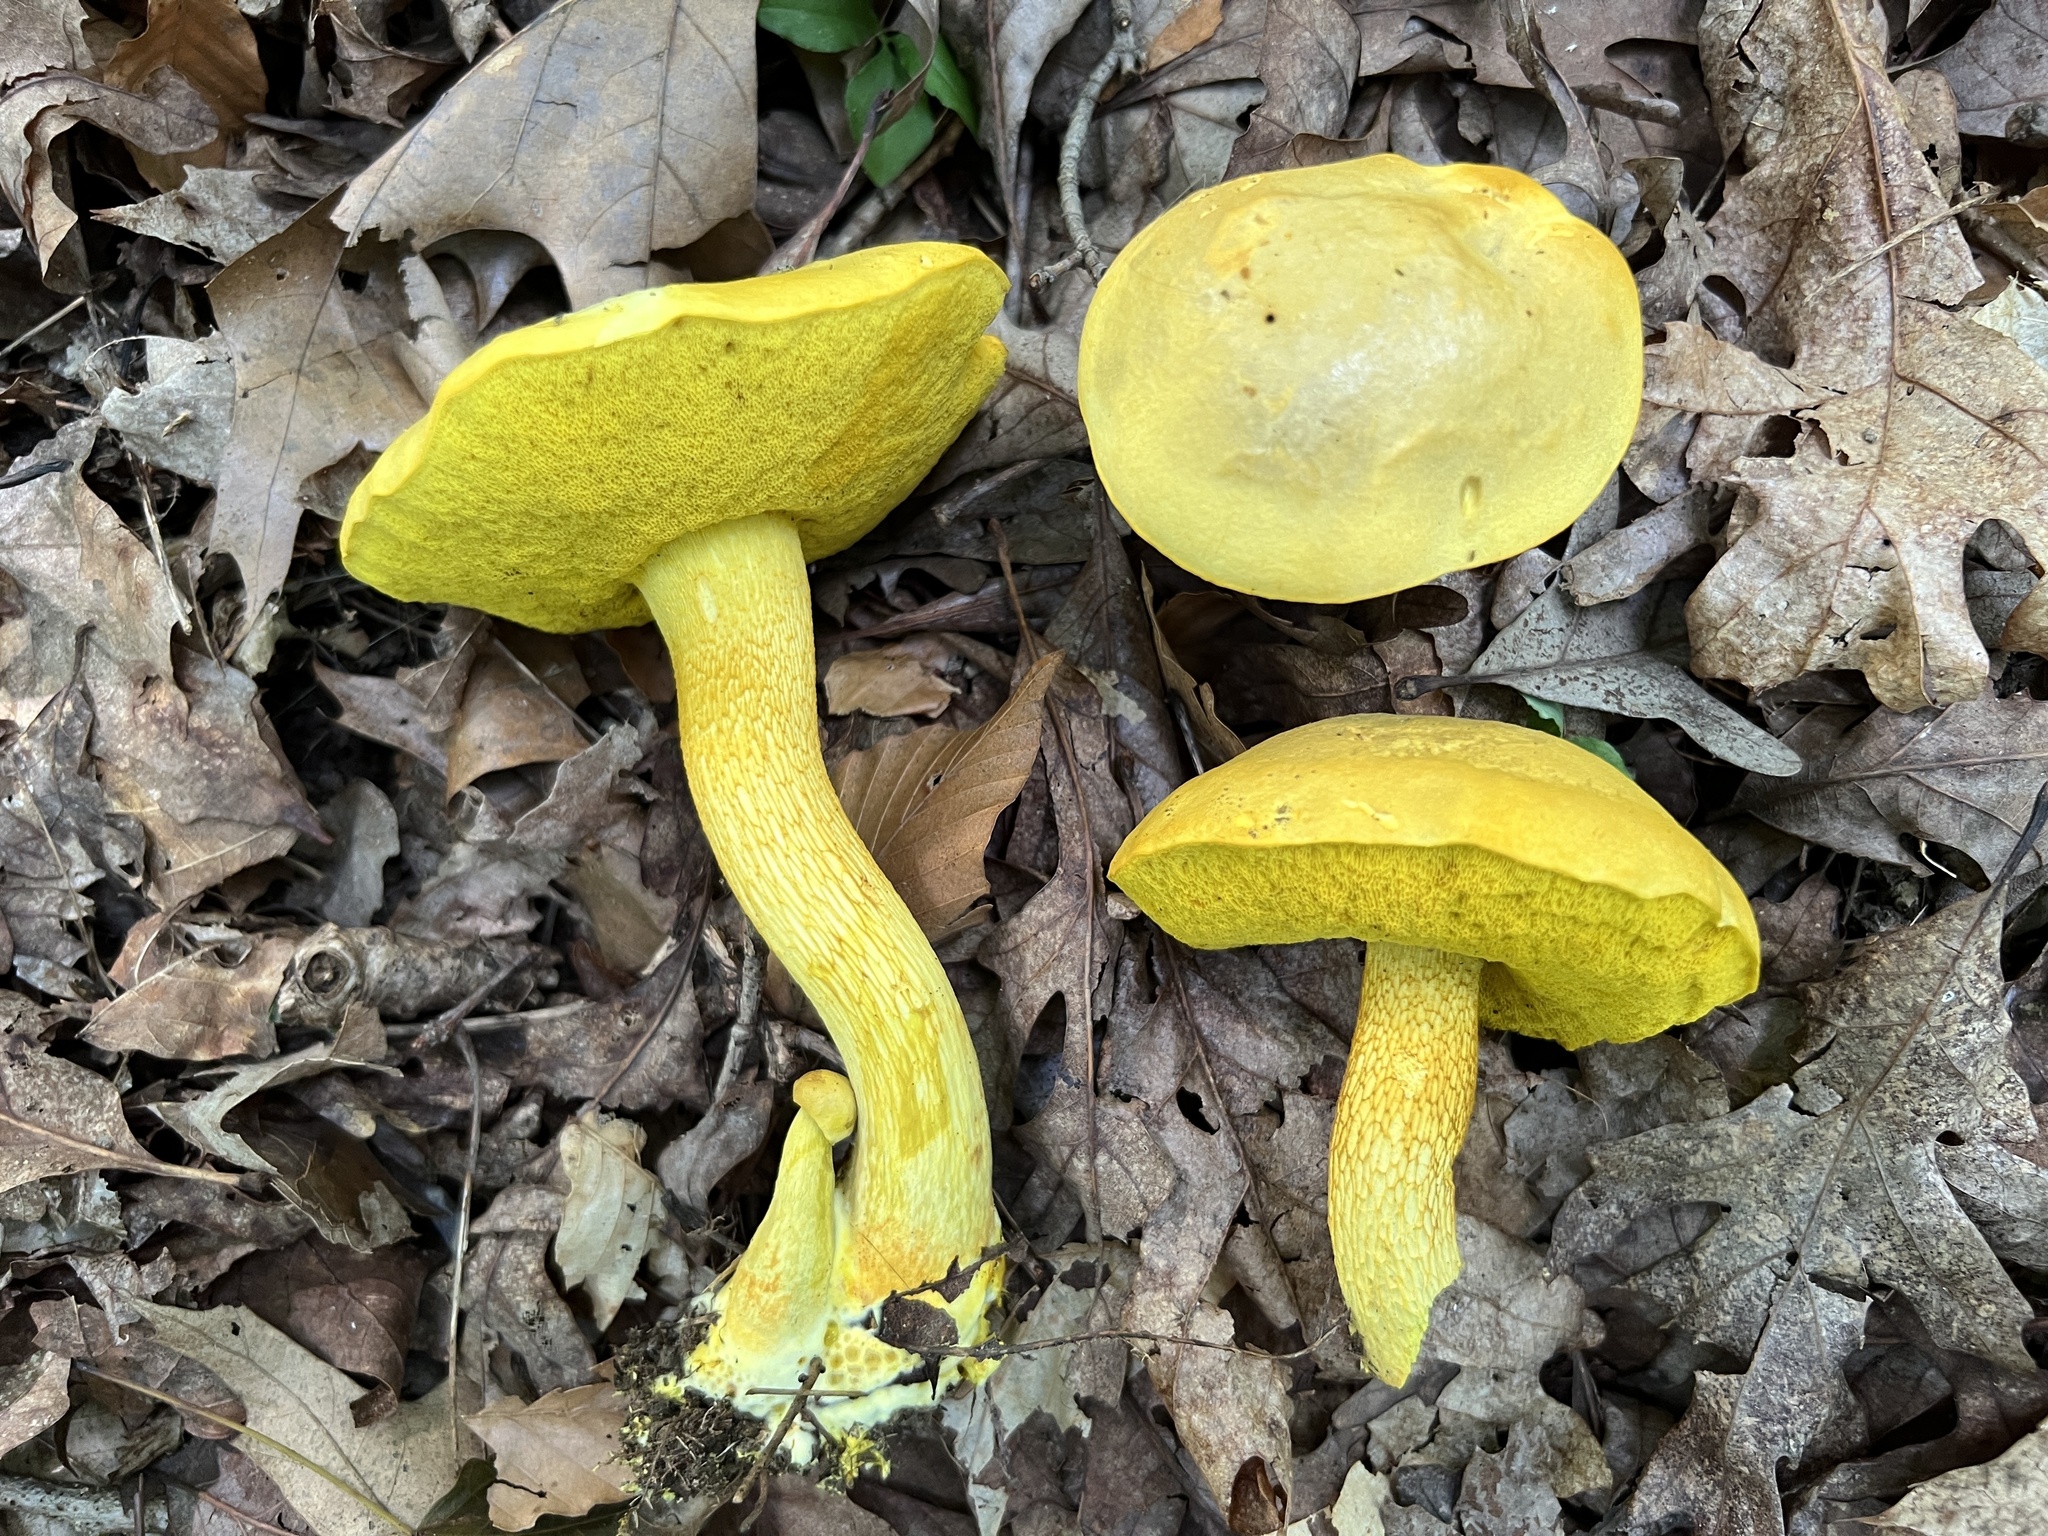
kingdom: Fungi
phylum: Basidiomycota
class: Agaricomycetes
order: Boletales
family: Boletaceae
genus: Retiboletus
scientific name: Retiboletus ornatipes
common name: Ornate-stalked bolete
